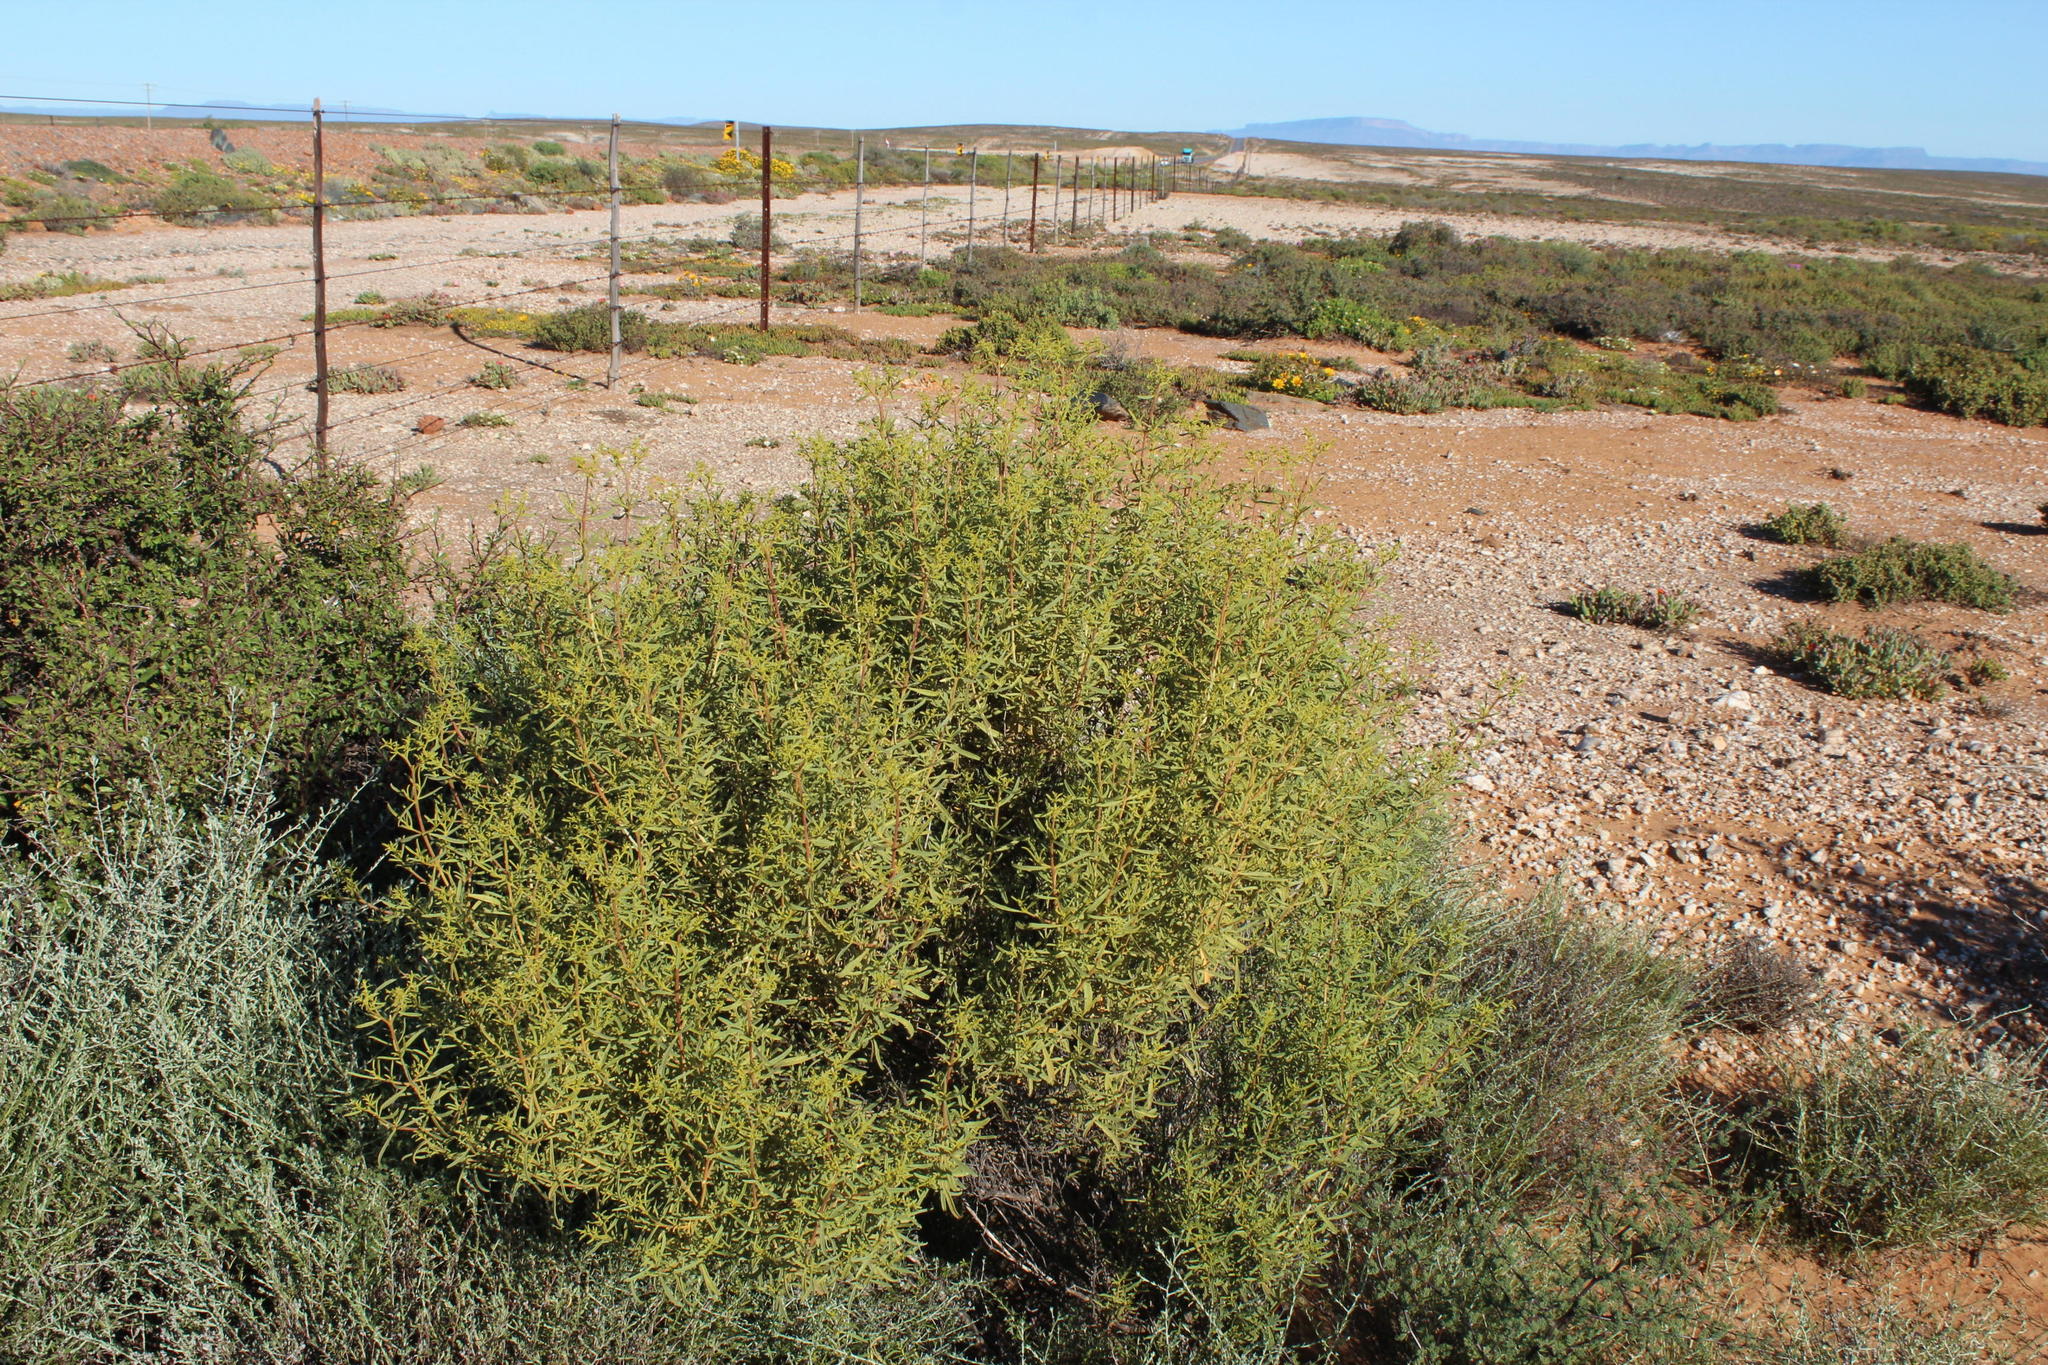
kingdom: Plantae
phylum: Tracheophyta
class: Magnoliopsida
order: Caryophyllales
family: Aizoaceae
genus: Aizoon
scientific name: Aizoon africanum
